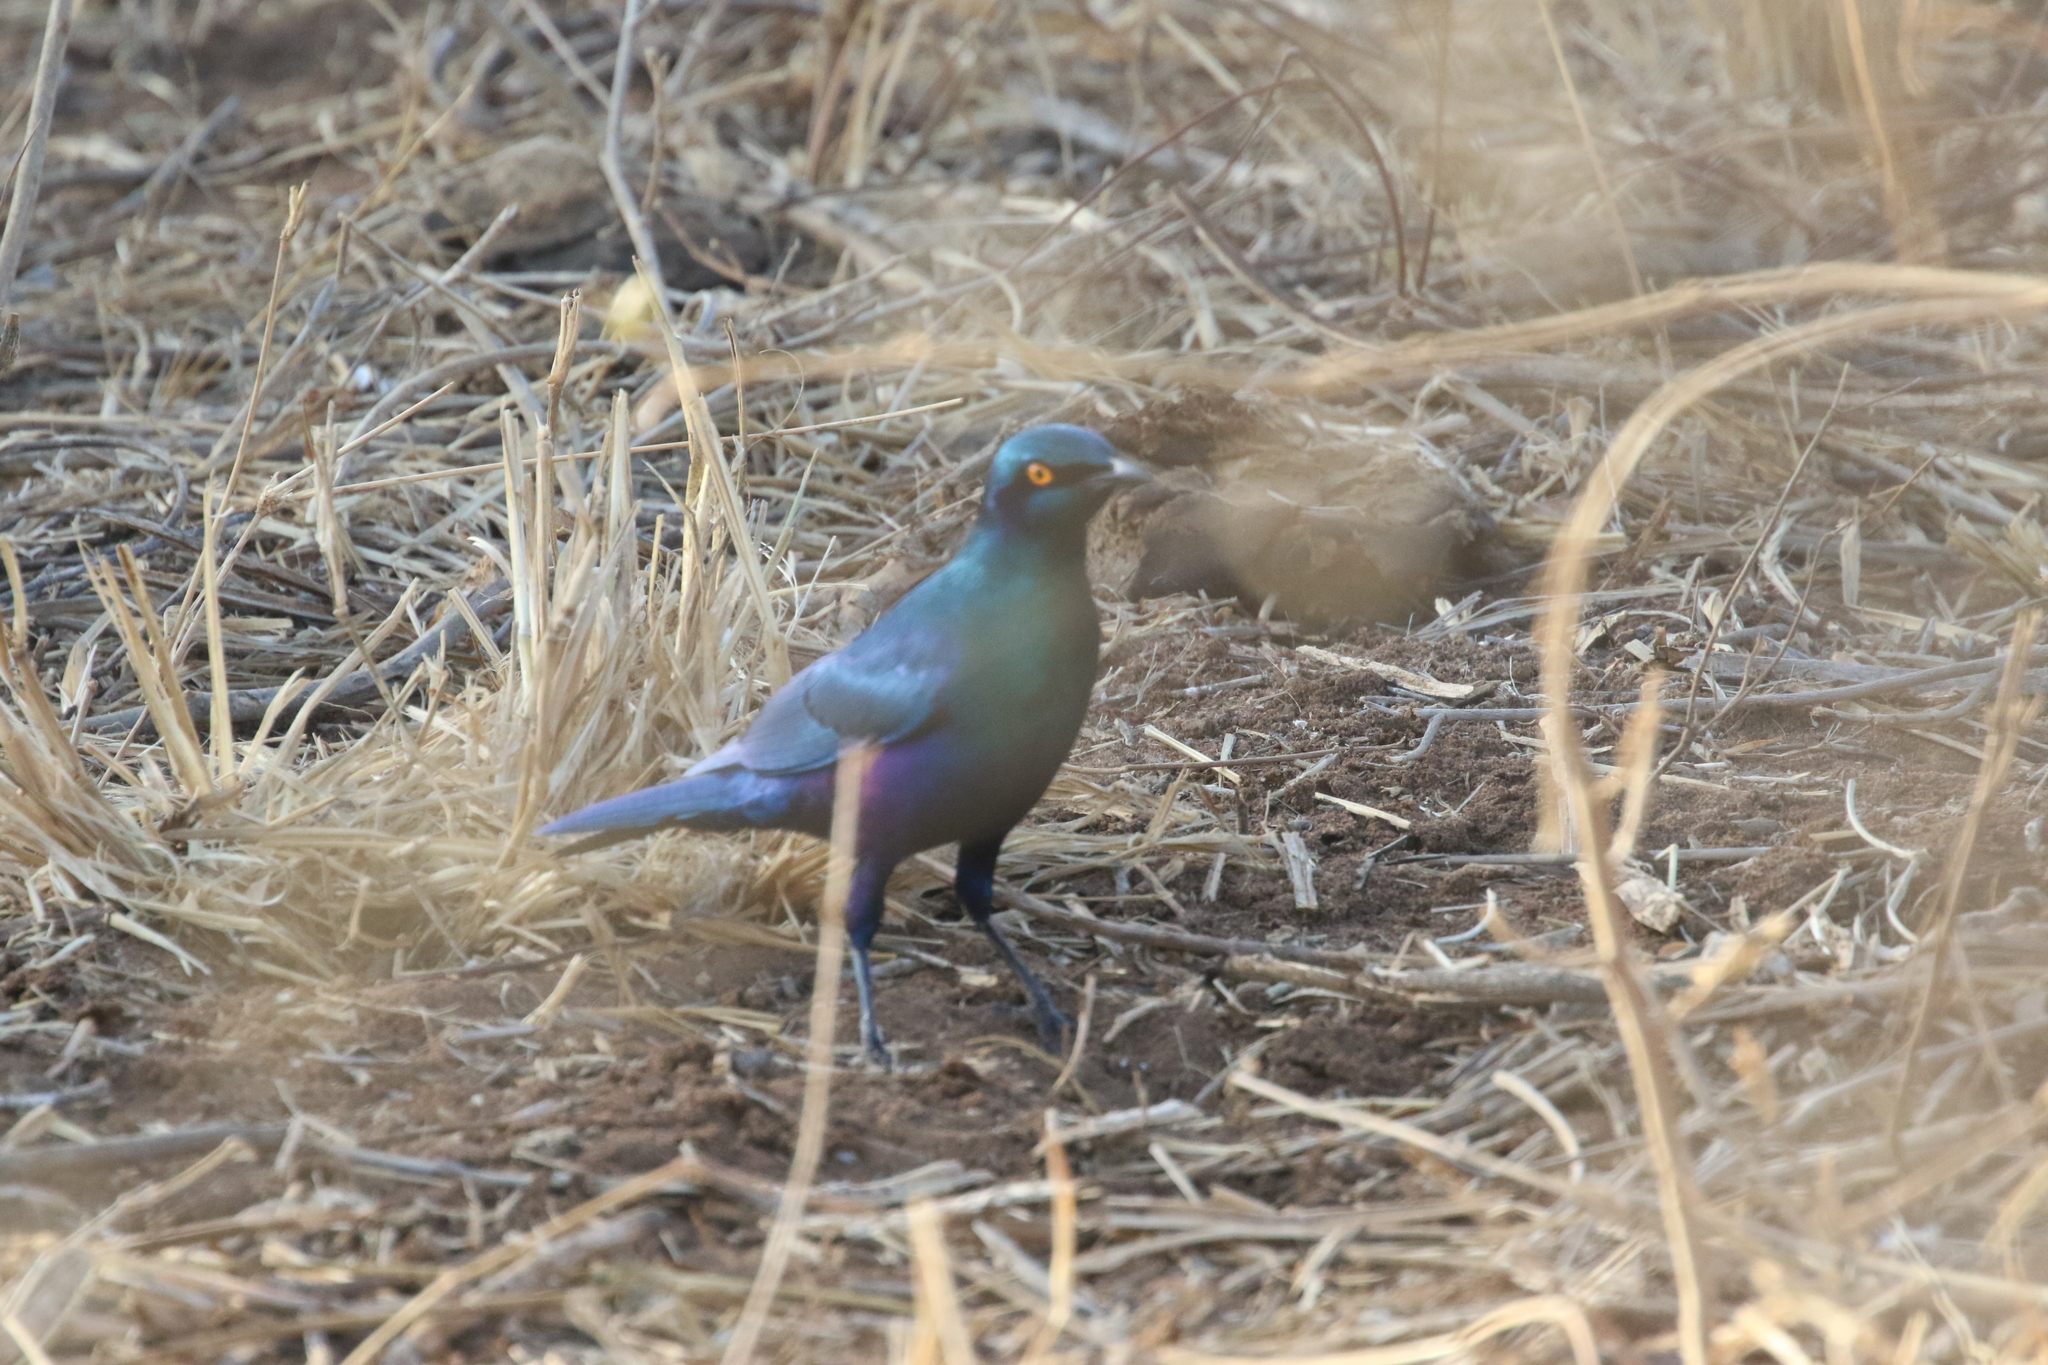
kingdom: Animalia
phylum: Chordata
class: Aves
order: Passeriformes
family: Sturnidae
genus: Lamprotornis
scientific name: Lamprotornis chalybaeus
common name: Greater blue-eared starling
